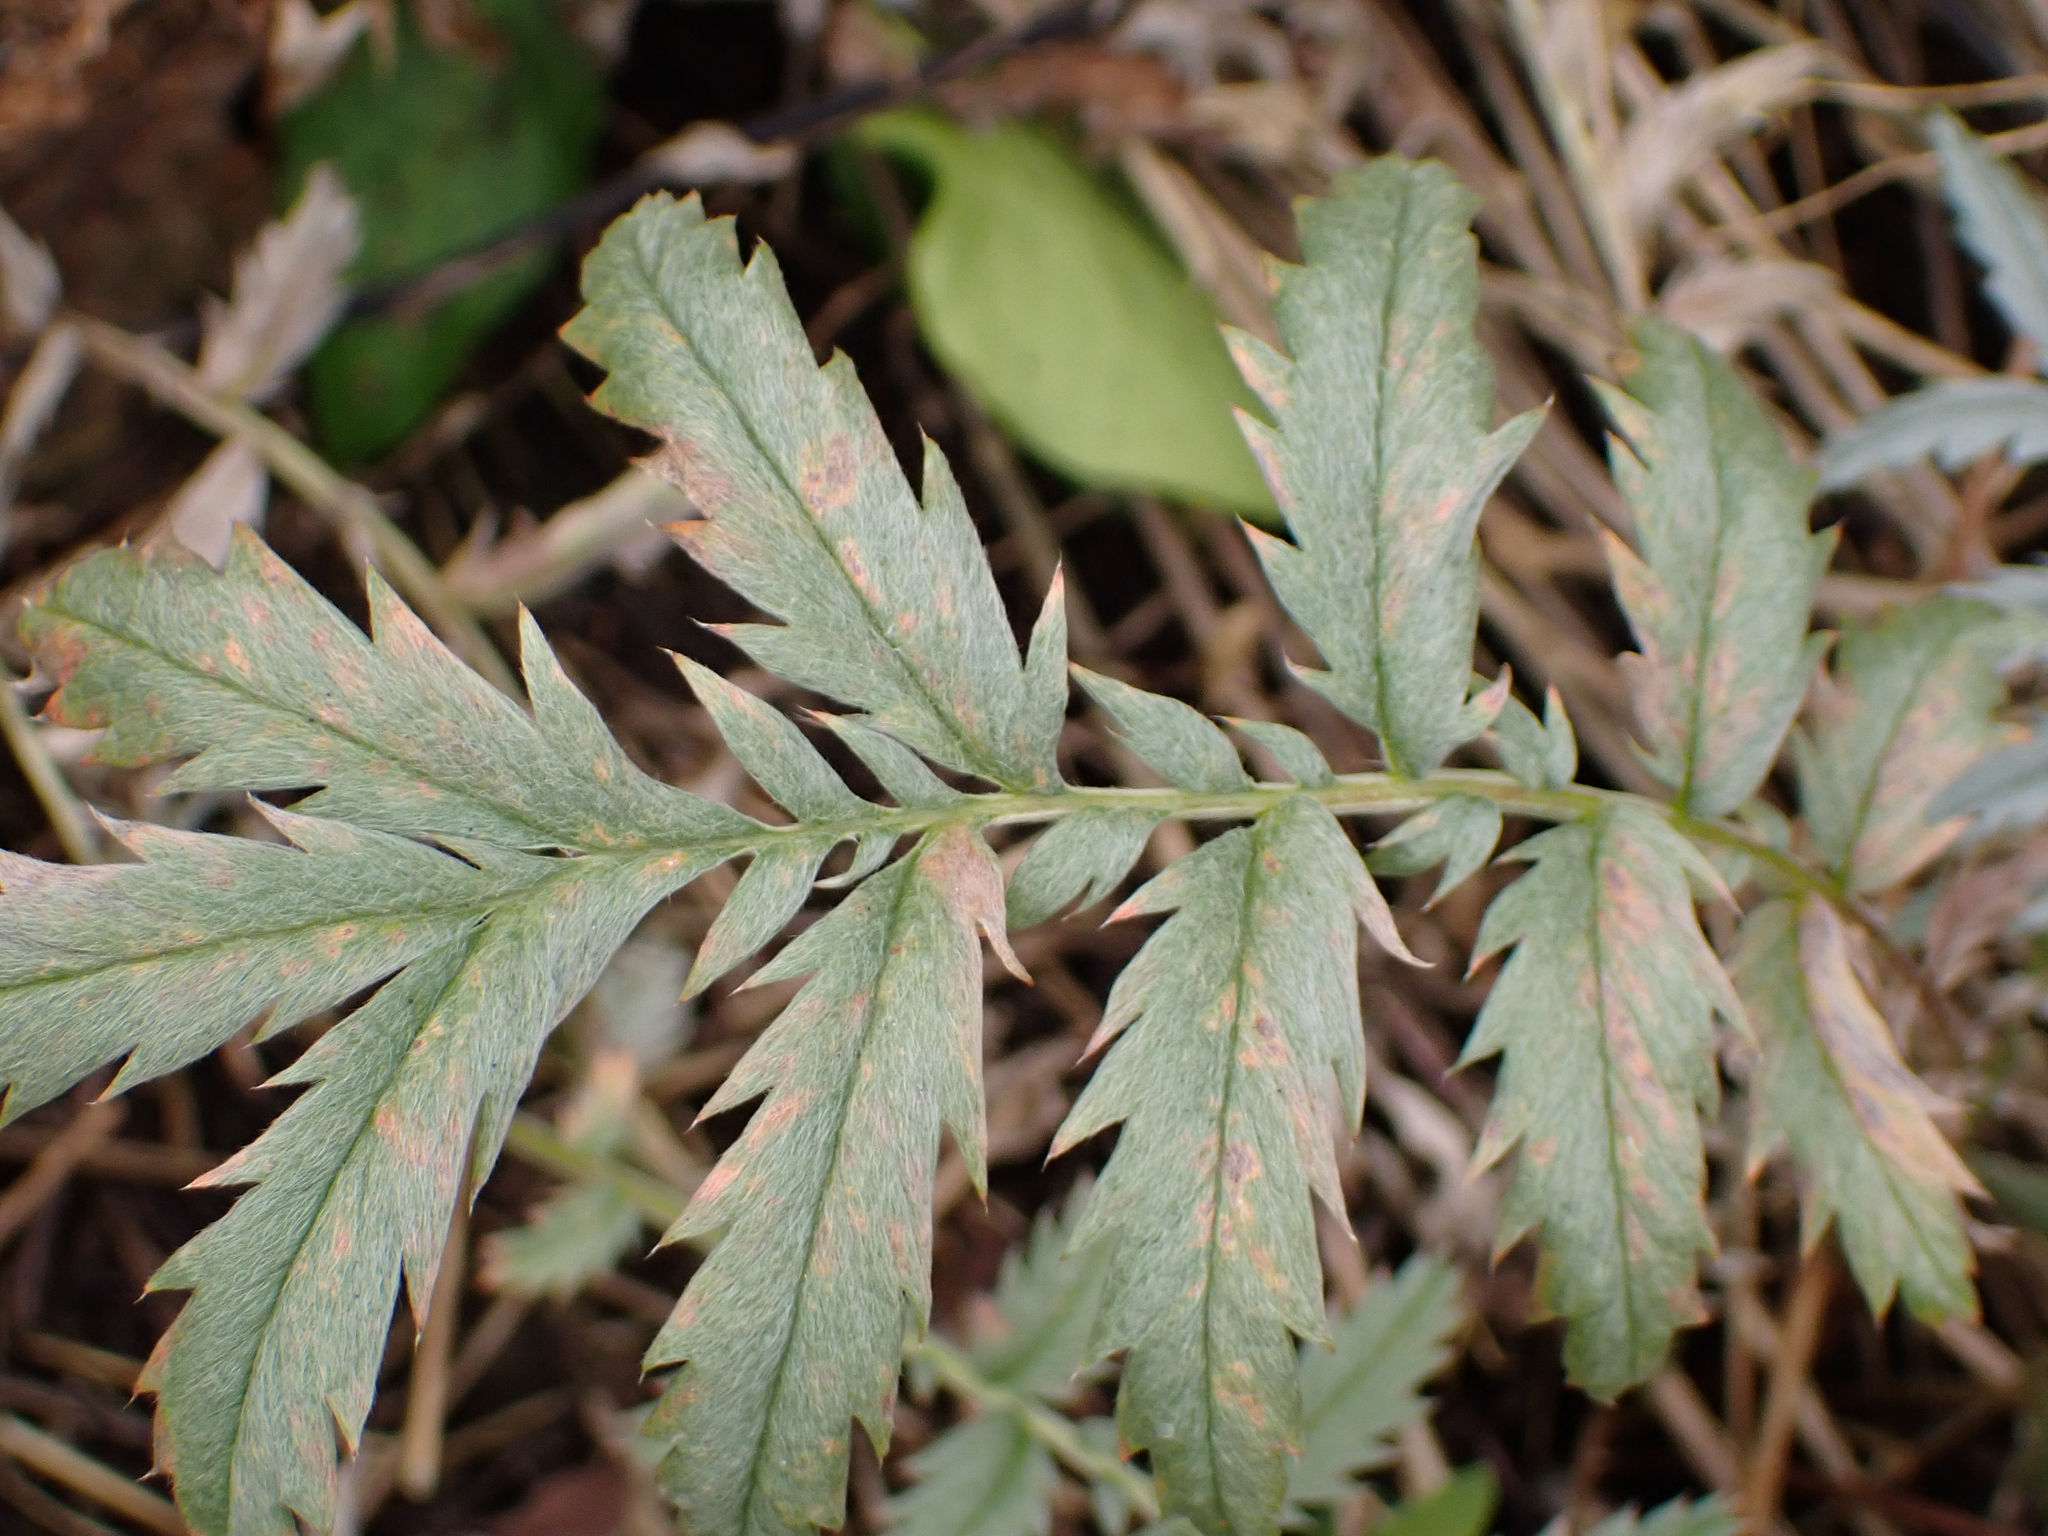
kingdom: Plantae
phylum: Tracheophyta
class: Magnoliopsida
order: Rosales
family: Rosaceae
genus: Argentina
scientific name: Argentina anserina
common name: Common silverweed
